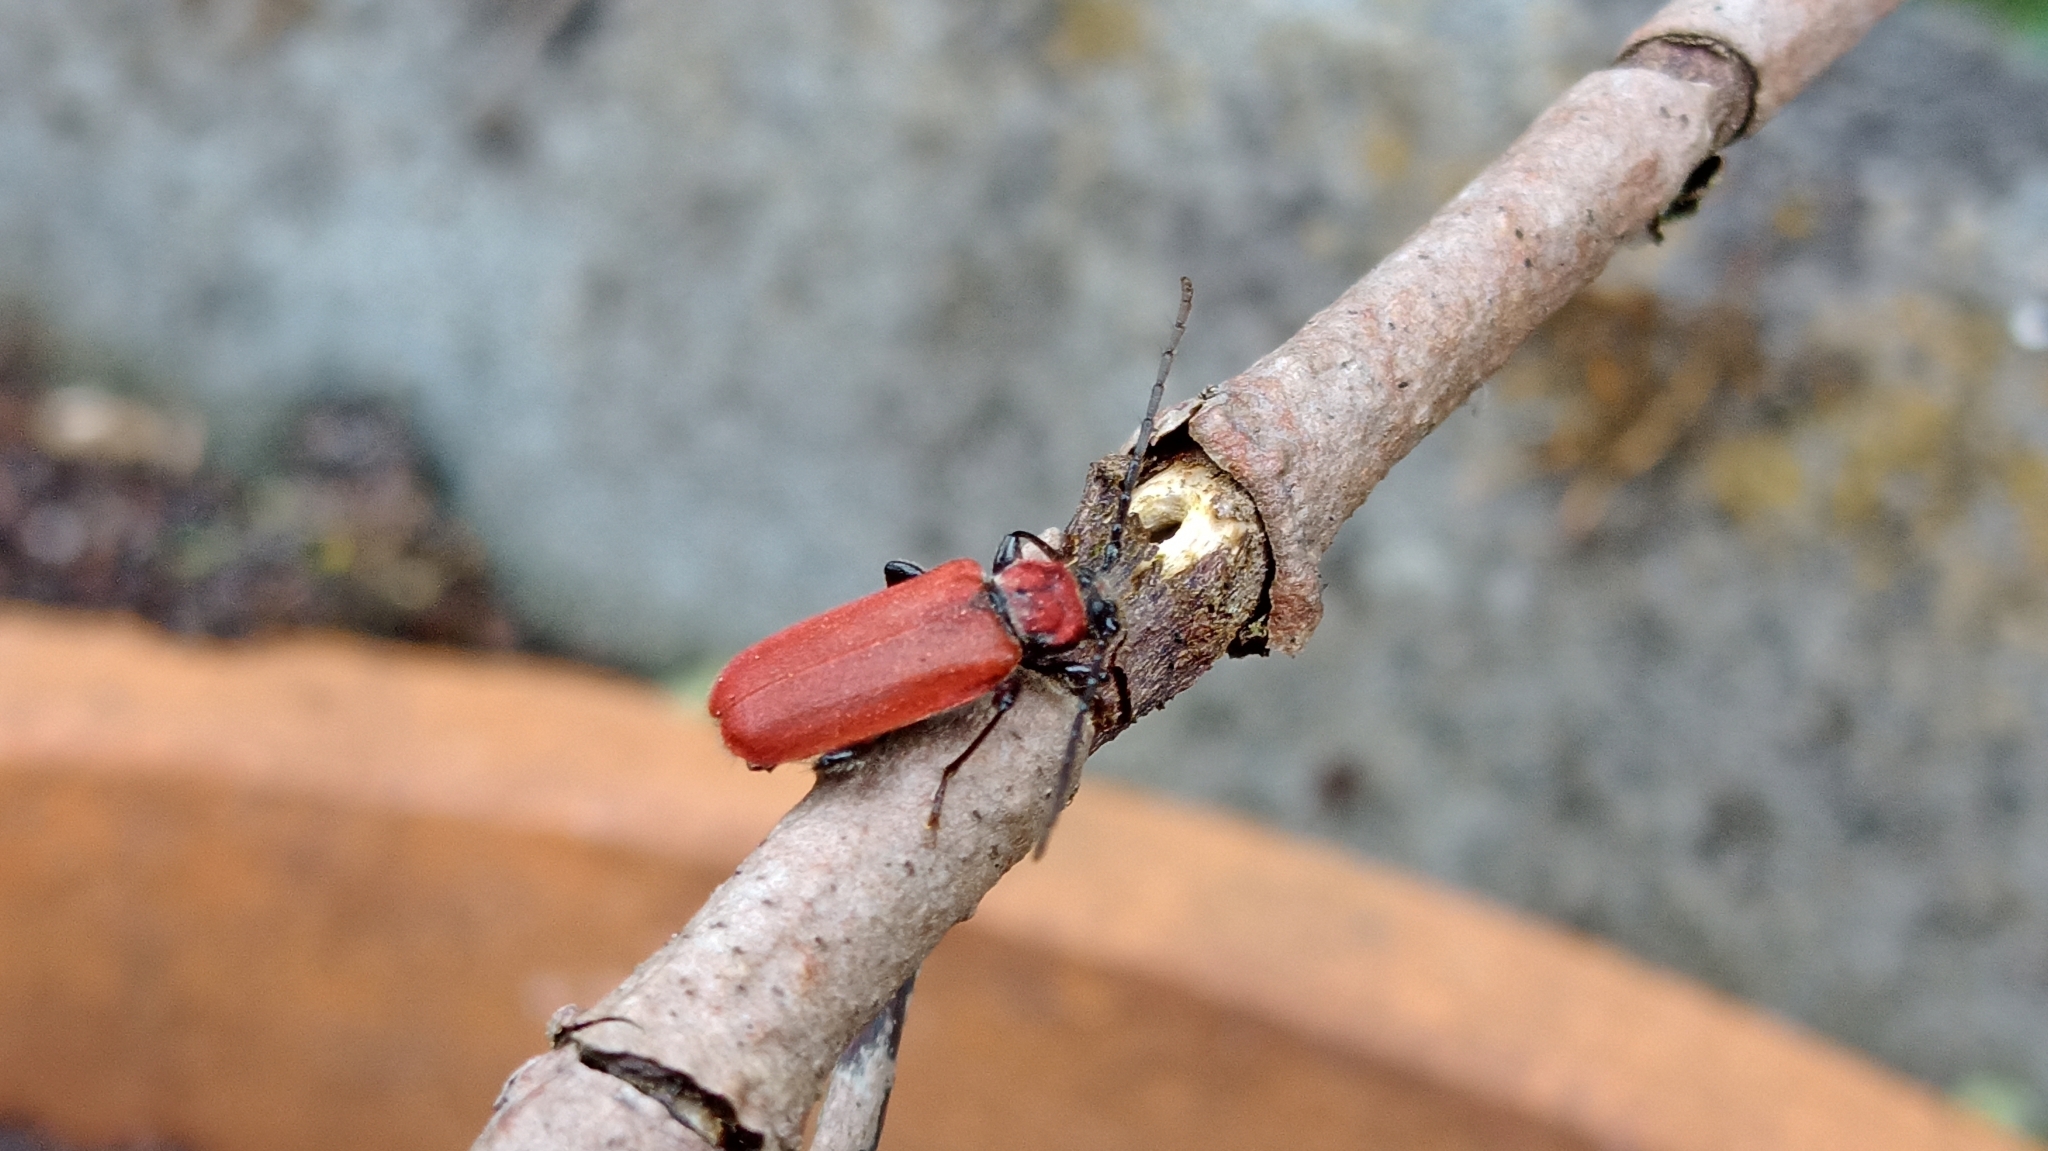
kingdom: Animalia
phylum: Arthropoda
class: Insecta
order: Coleoptera
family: Cerambycidae
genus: Pyrrhidium
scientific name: Pyrrhidium sanguineum
